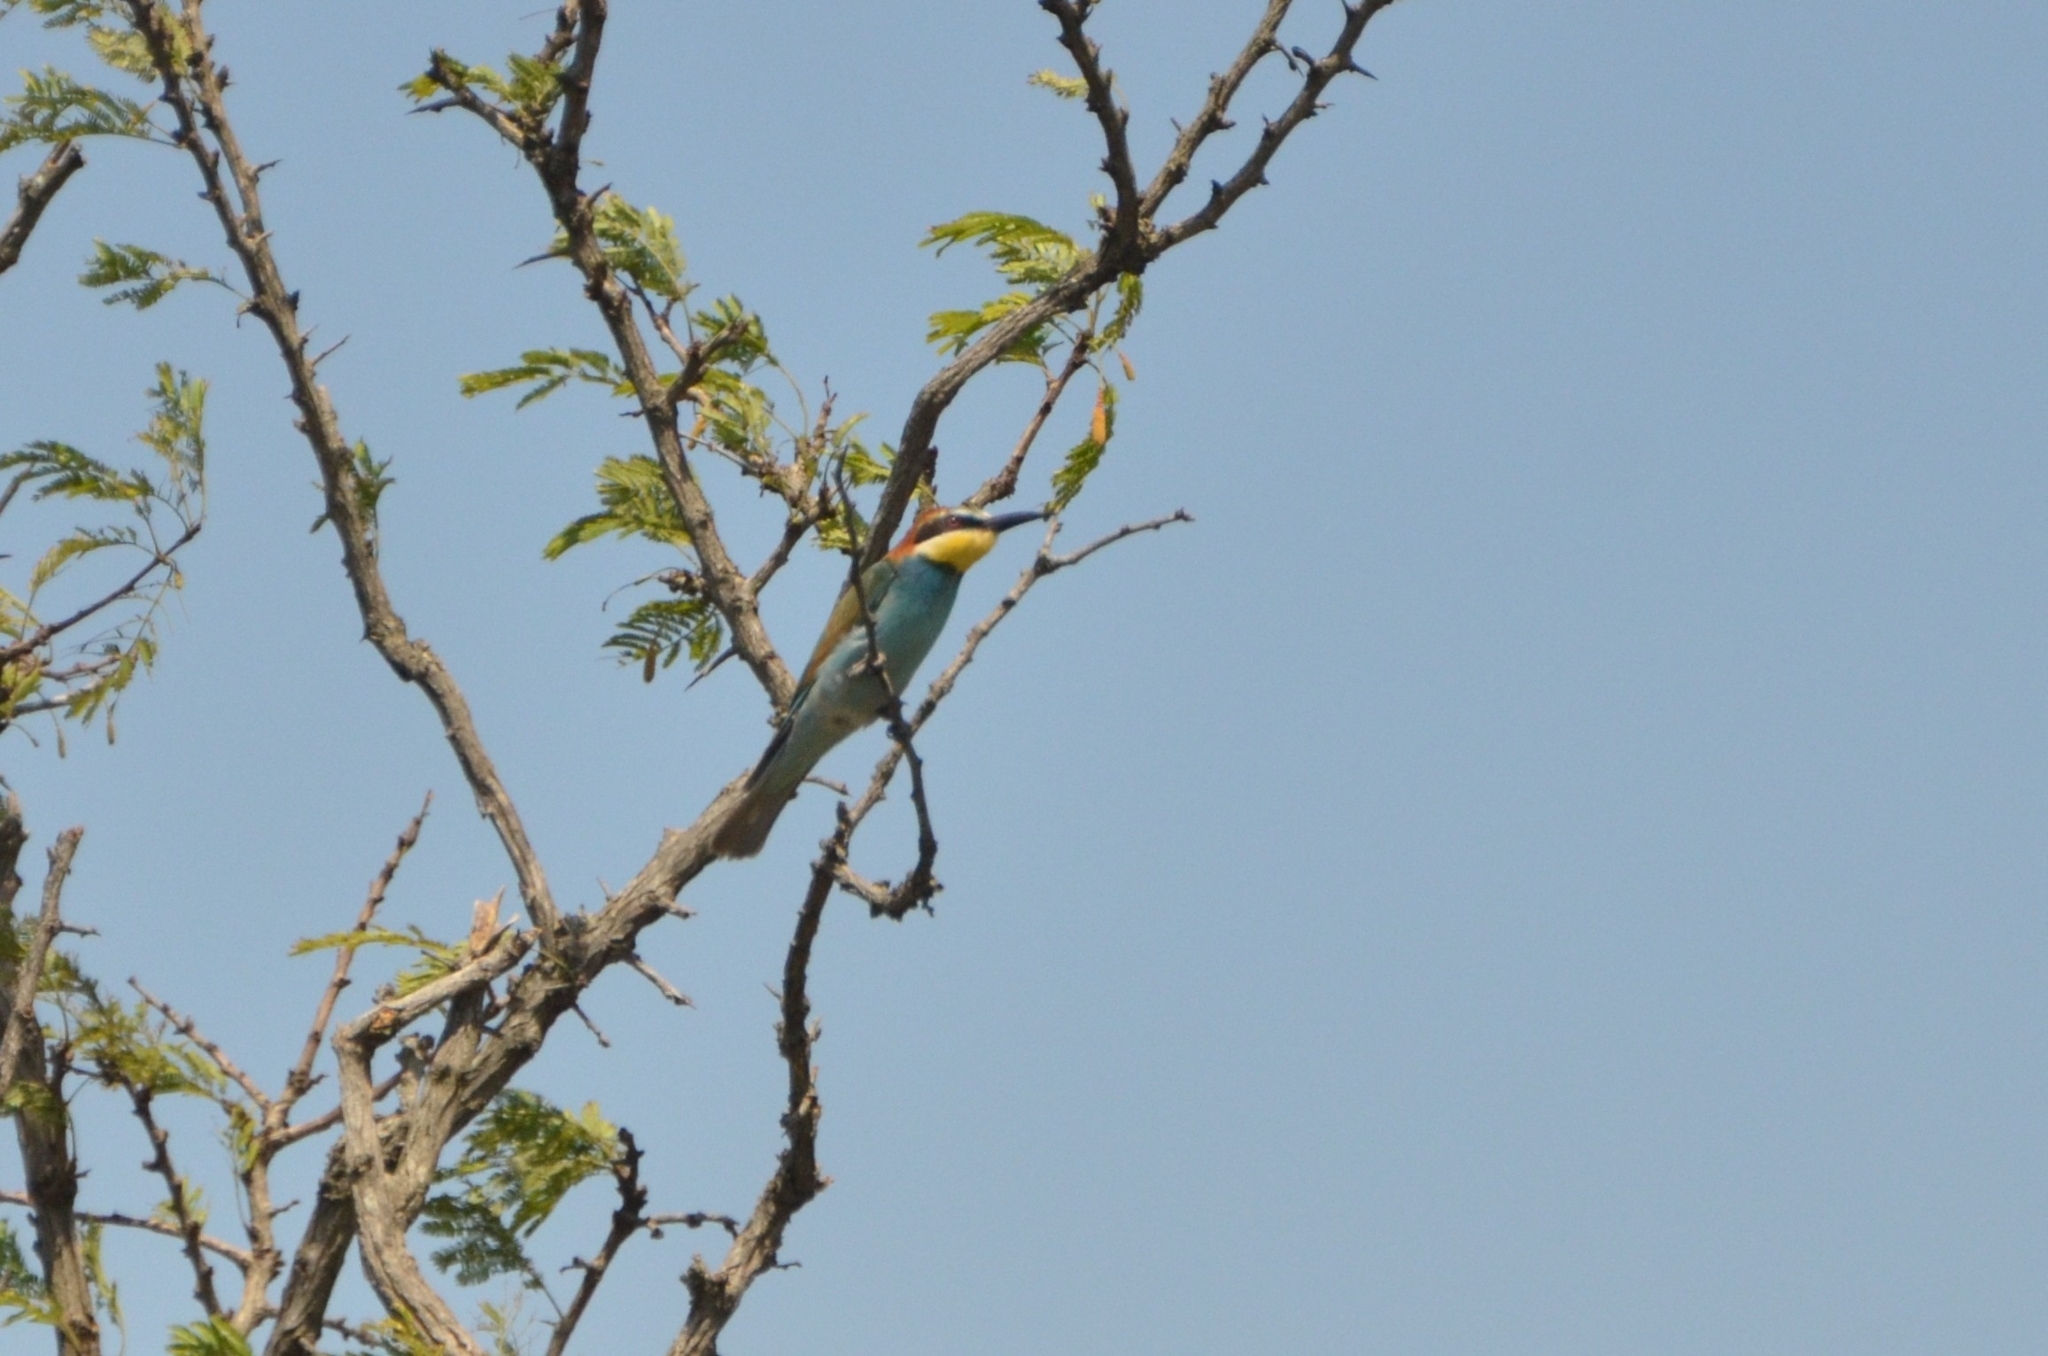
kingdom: Animalia
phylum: Chordata
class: Aves
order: Coraciiformes
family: Meropidae
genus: Merops
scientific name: Merops apiaster
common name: European bee-eater
